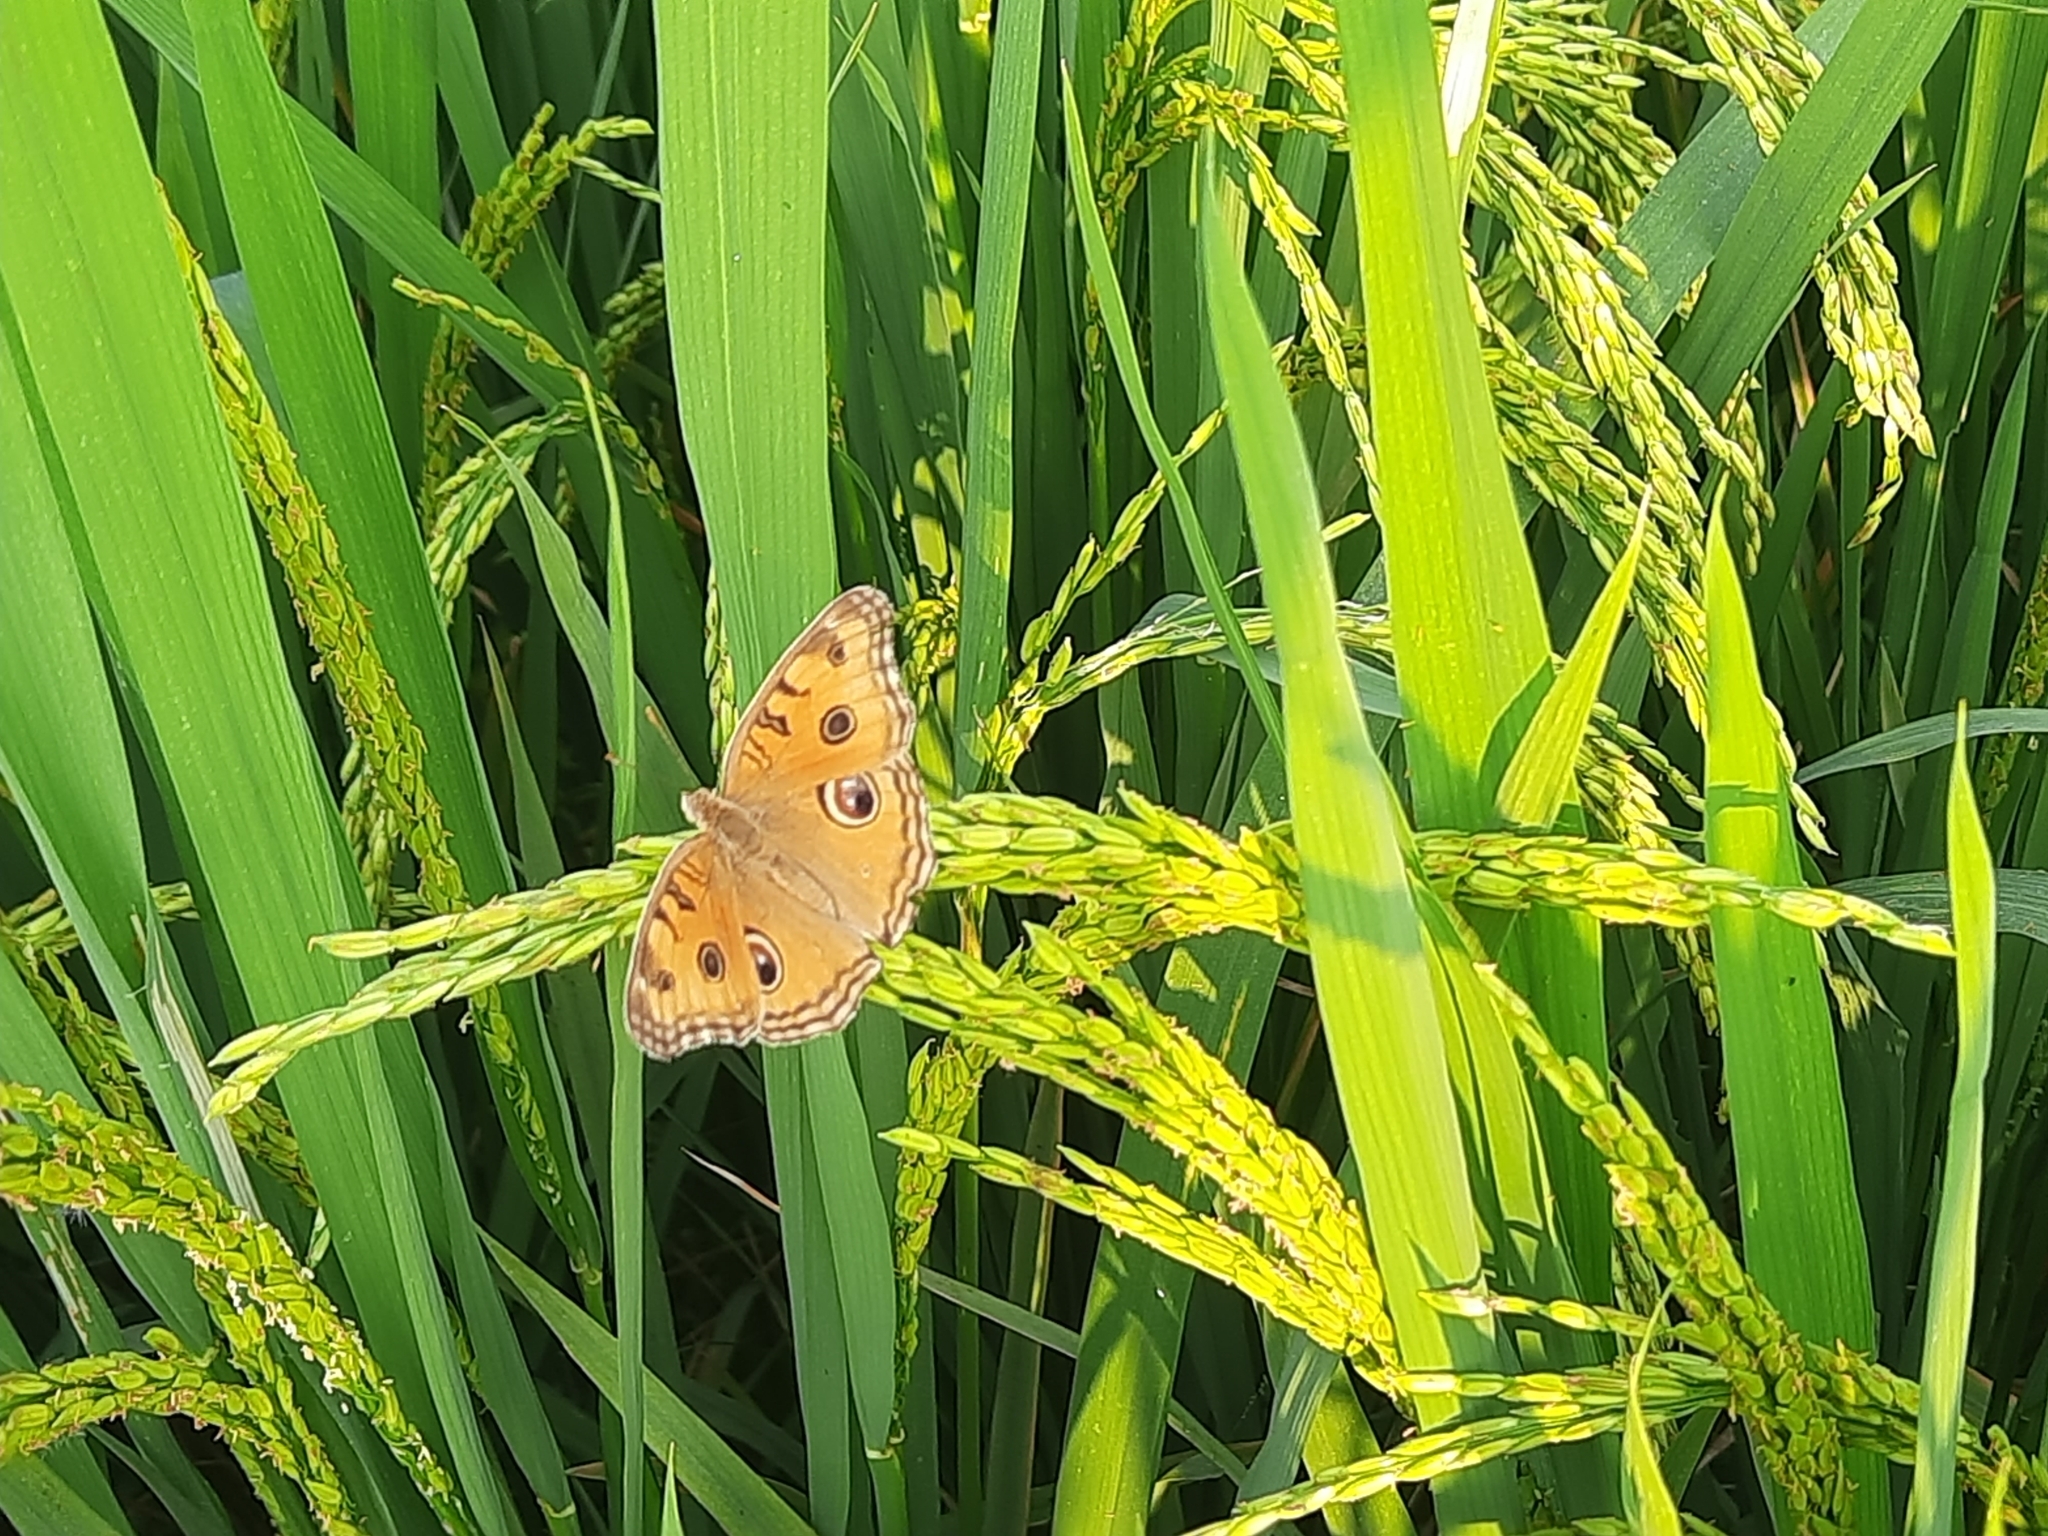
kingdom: Animalia
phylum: Arthropoda
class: Insecta
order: Lepidoptera
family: Nymphalidae
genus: Junonia
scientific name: Junonia almana
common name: Peacock pansy
